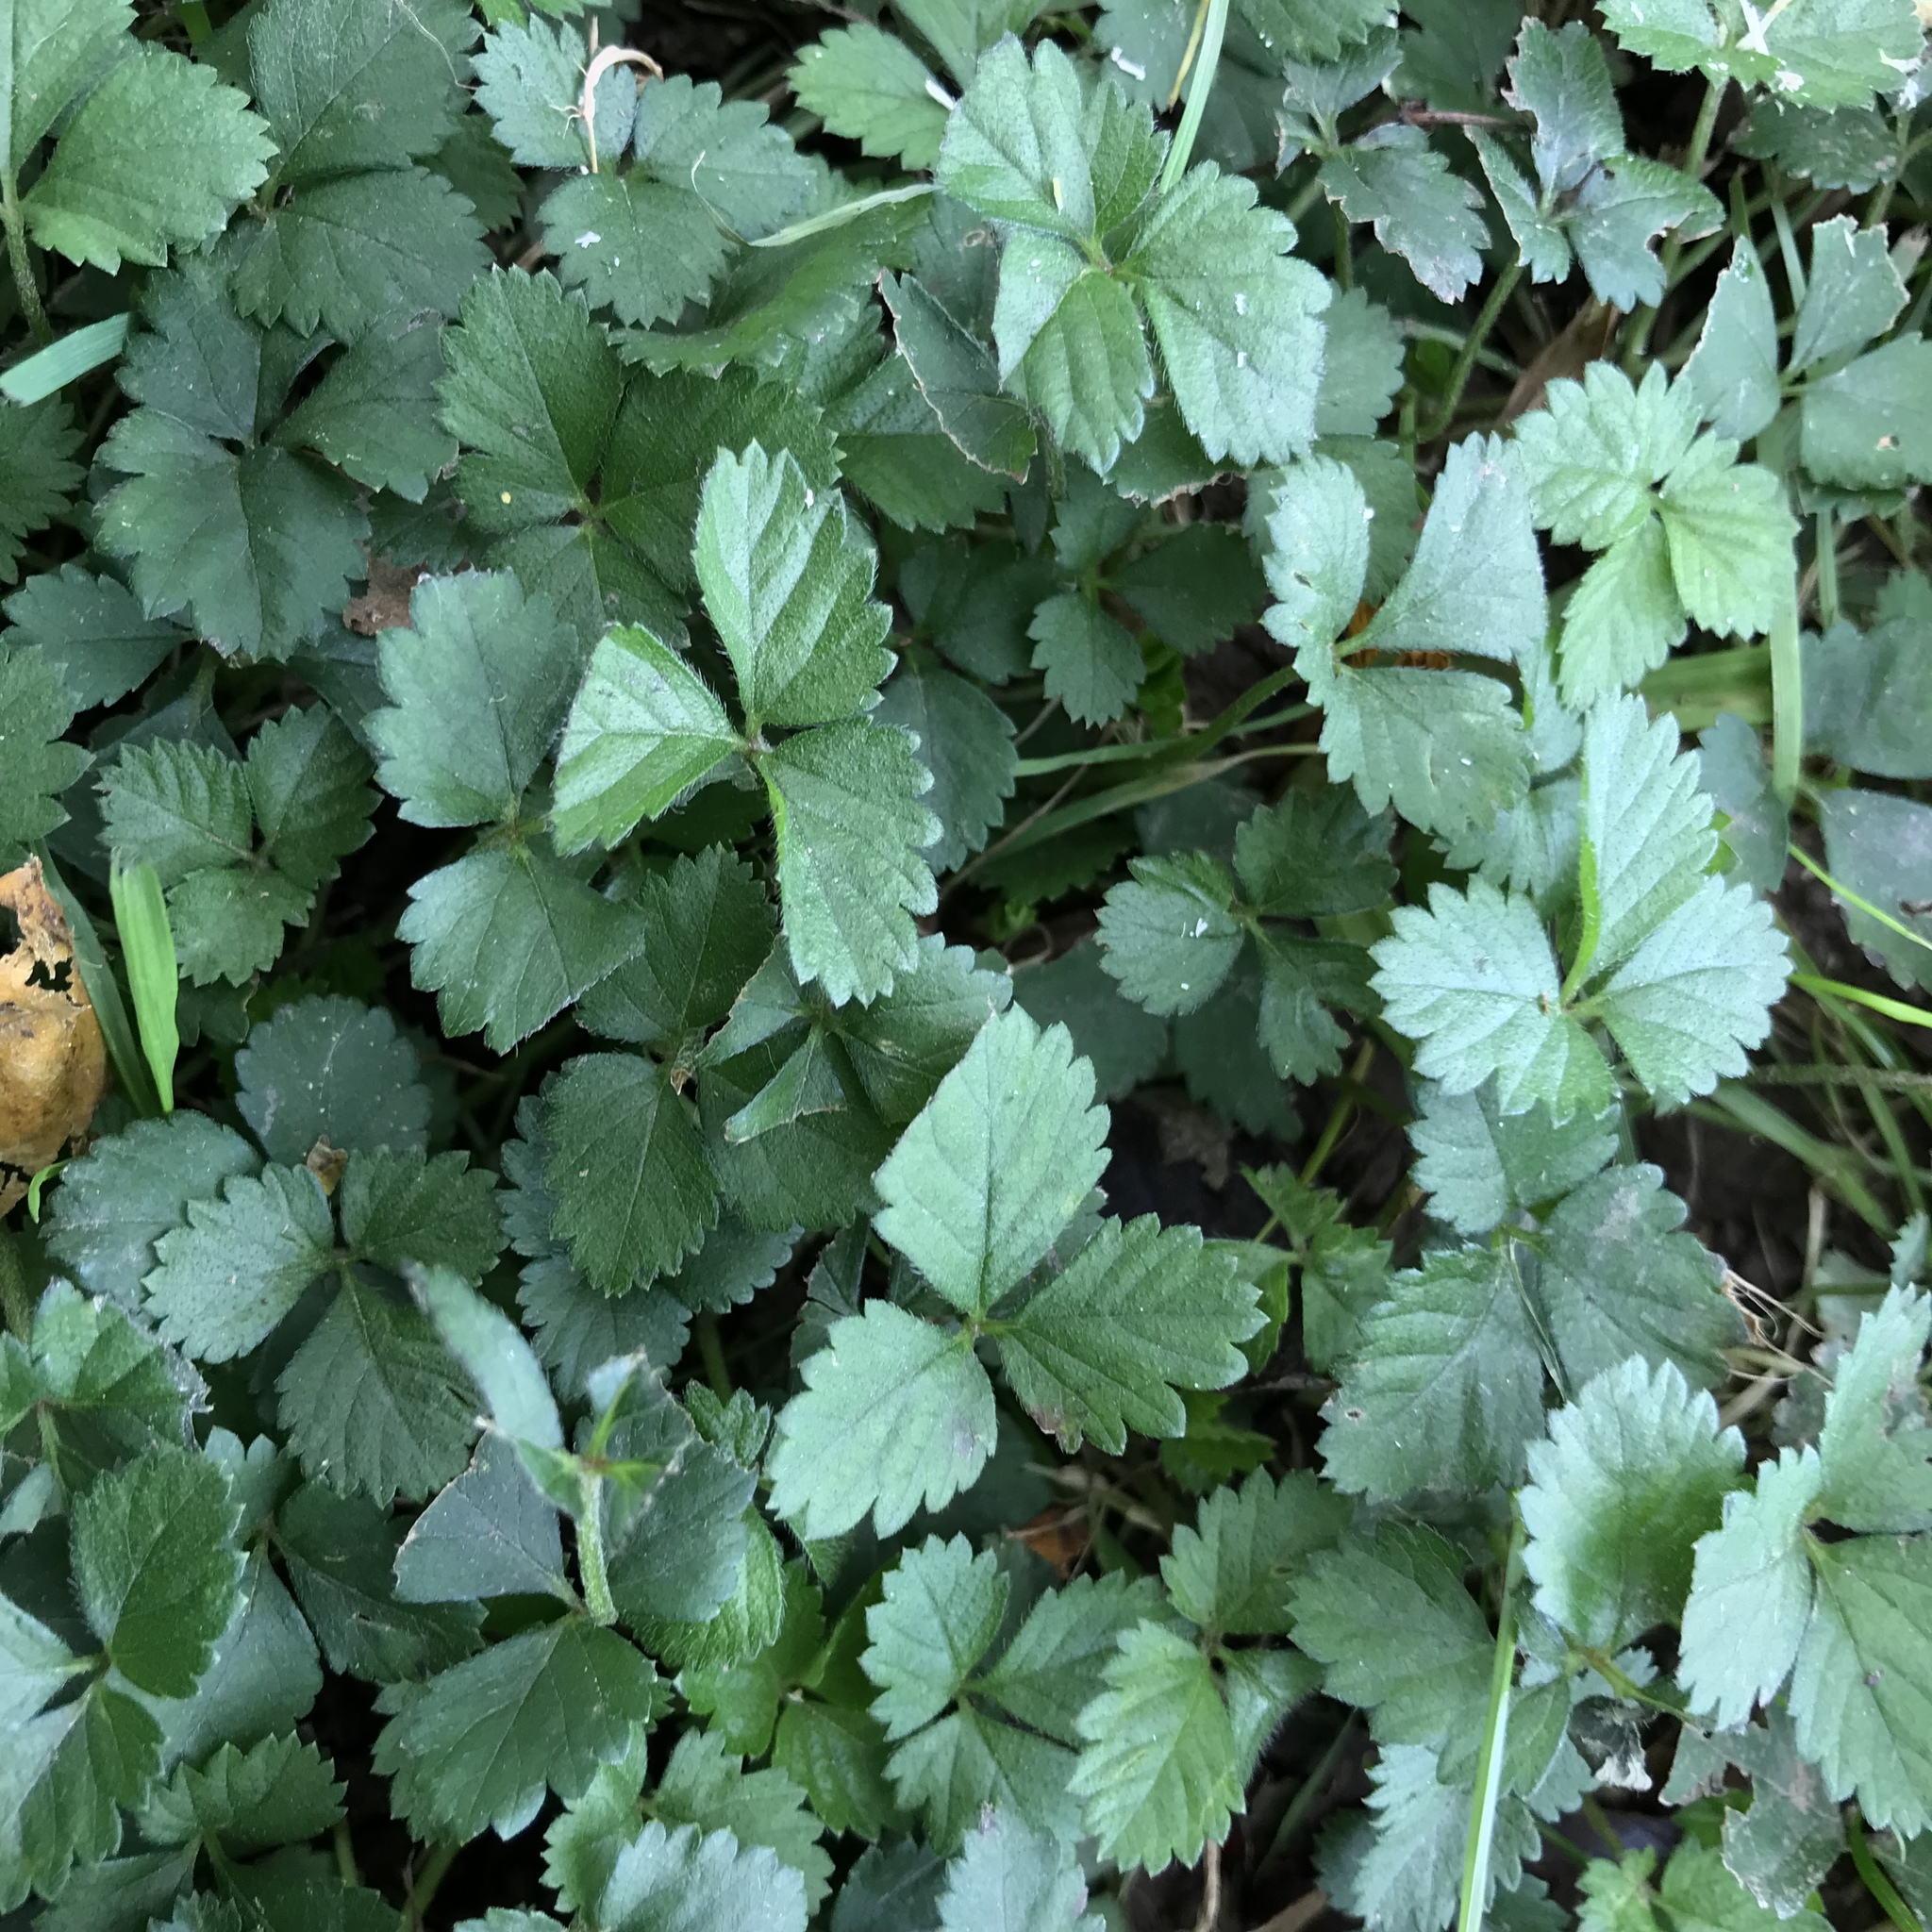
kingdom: Plantae
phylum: Tracheophyta
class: Magnoliopsida
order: Rosales
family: Rosaceae
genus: Potentilla
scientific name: Potentilla indica
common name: Yellow-flowered strawberry
